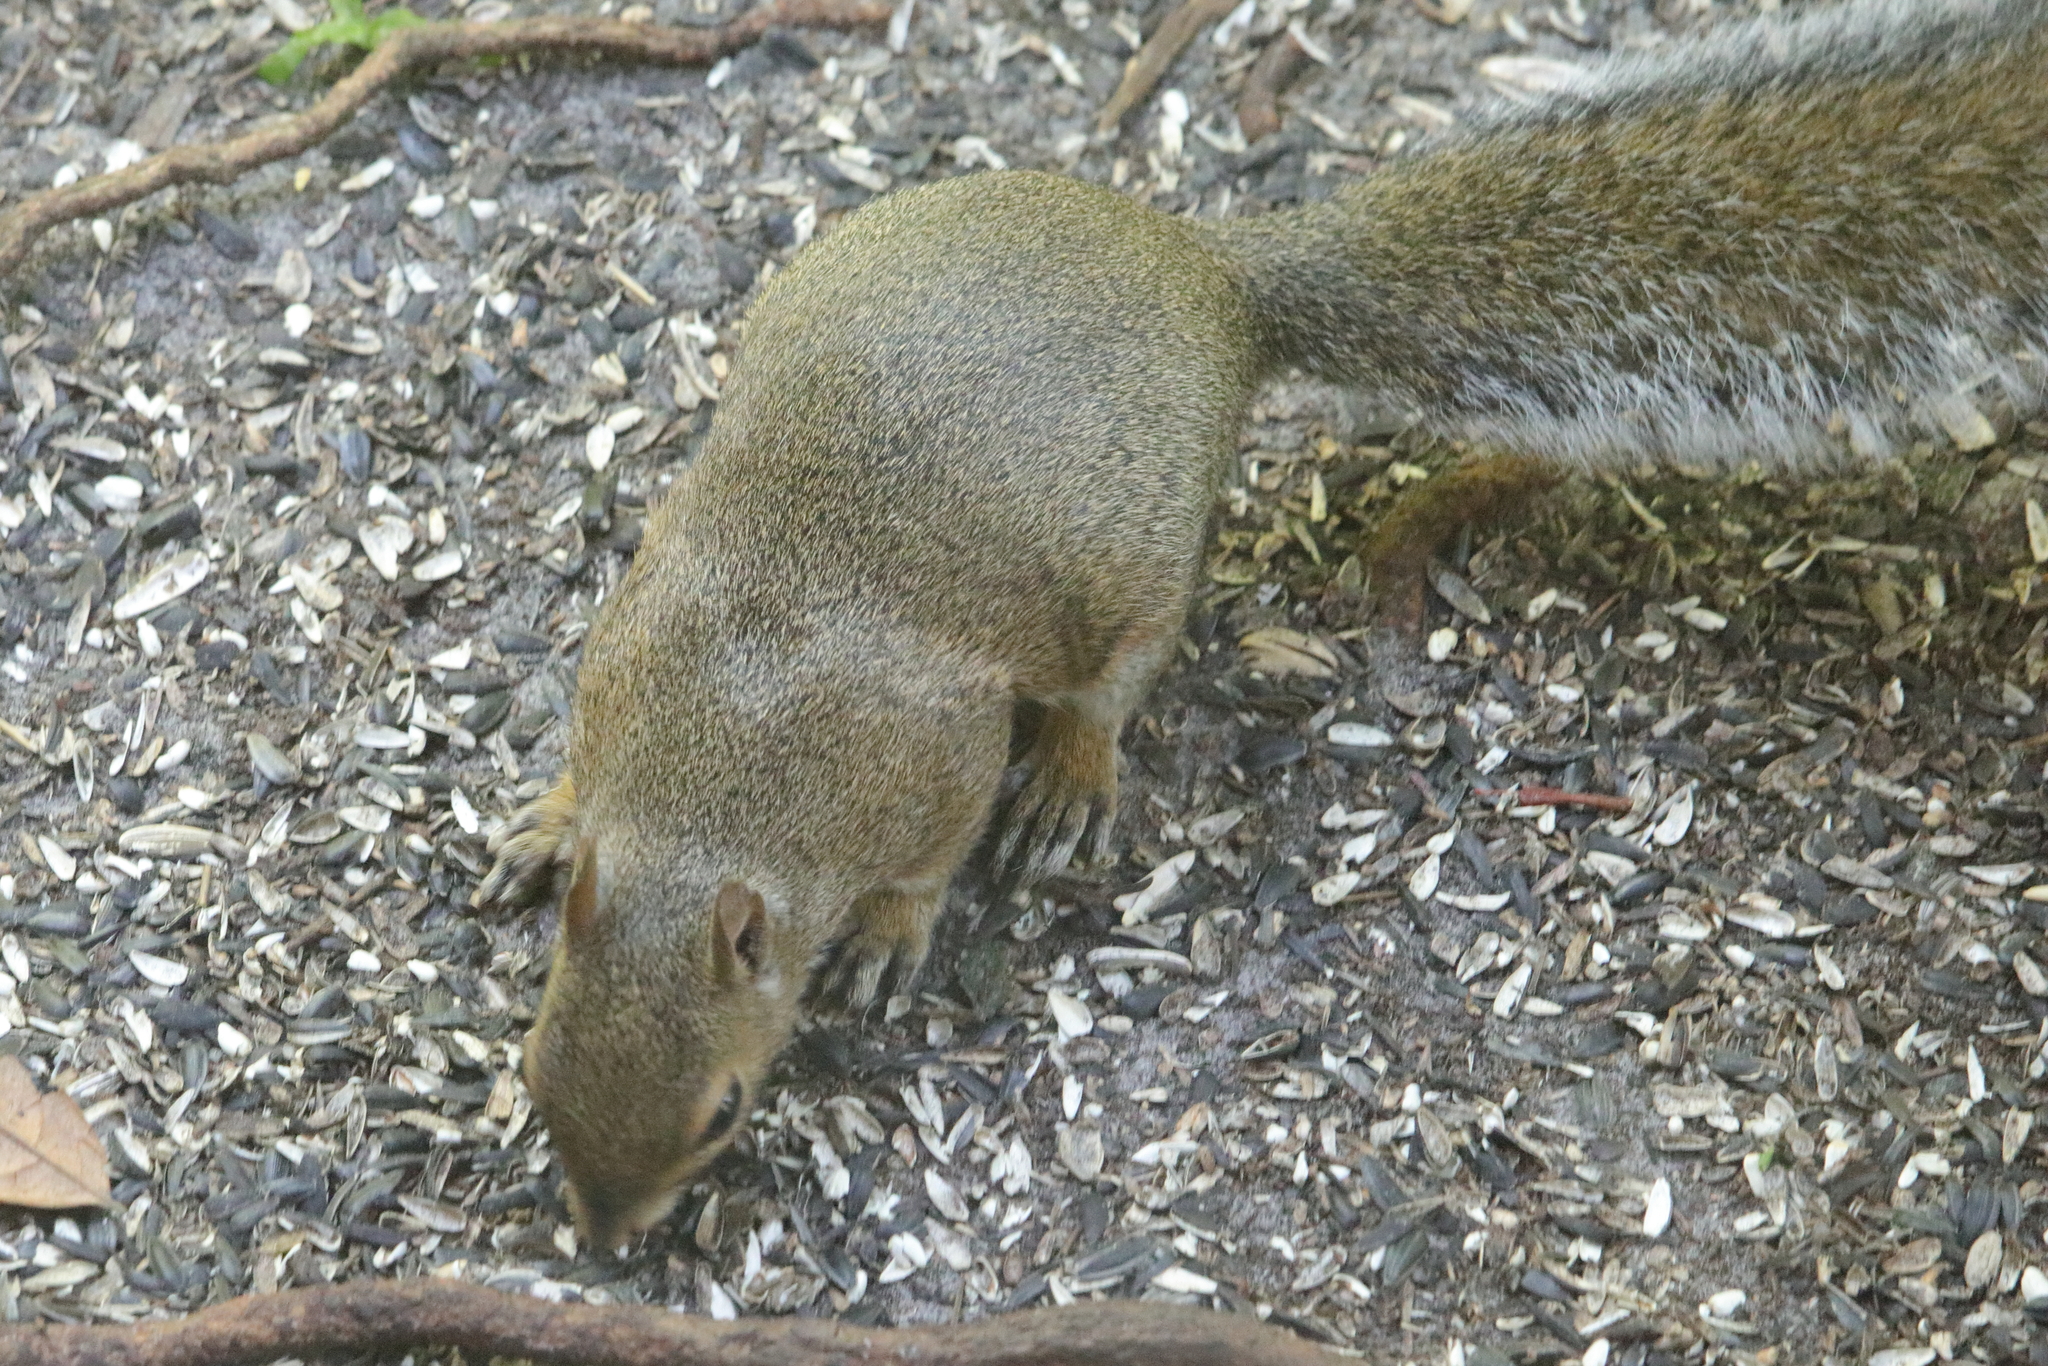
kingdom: Animalia
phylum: Chordata
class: Mammalia
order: Rodentia
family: Sciuridae
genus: Sciurus
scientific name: Sciurus carolinensis
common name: Eastern gray squirrel
